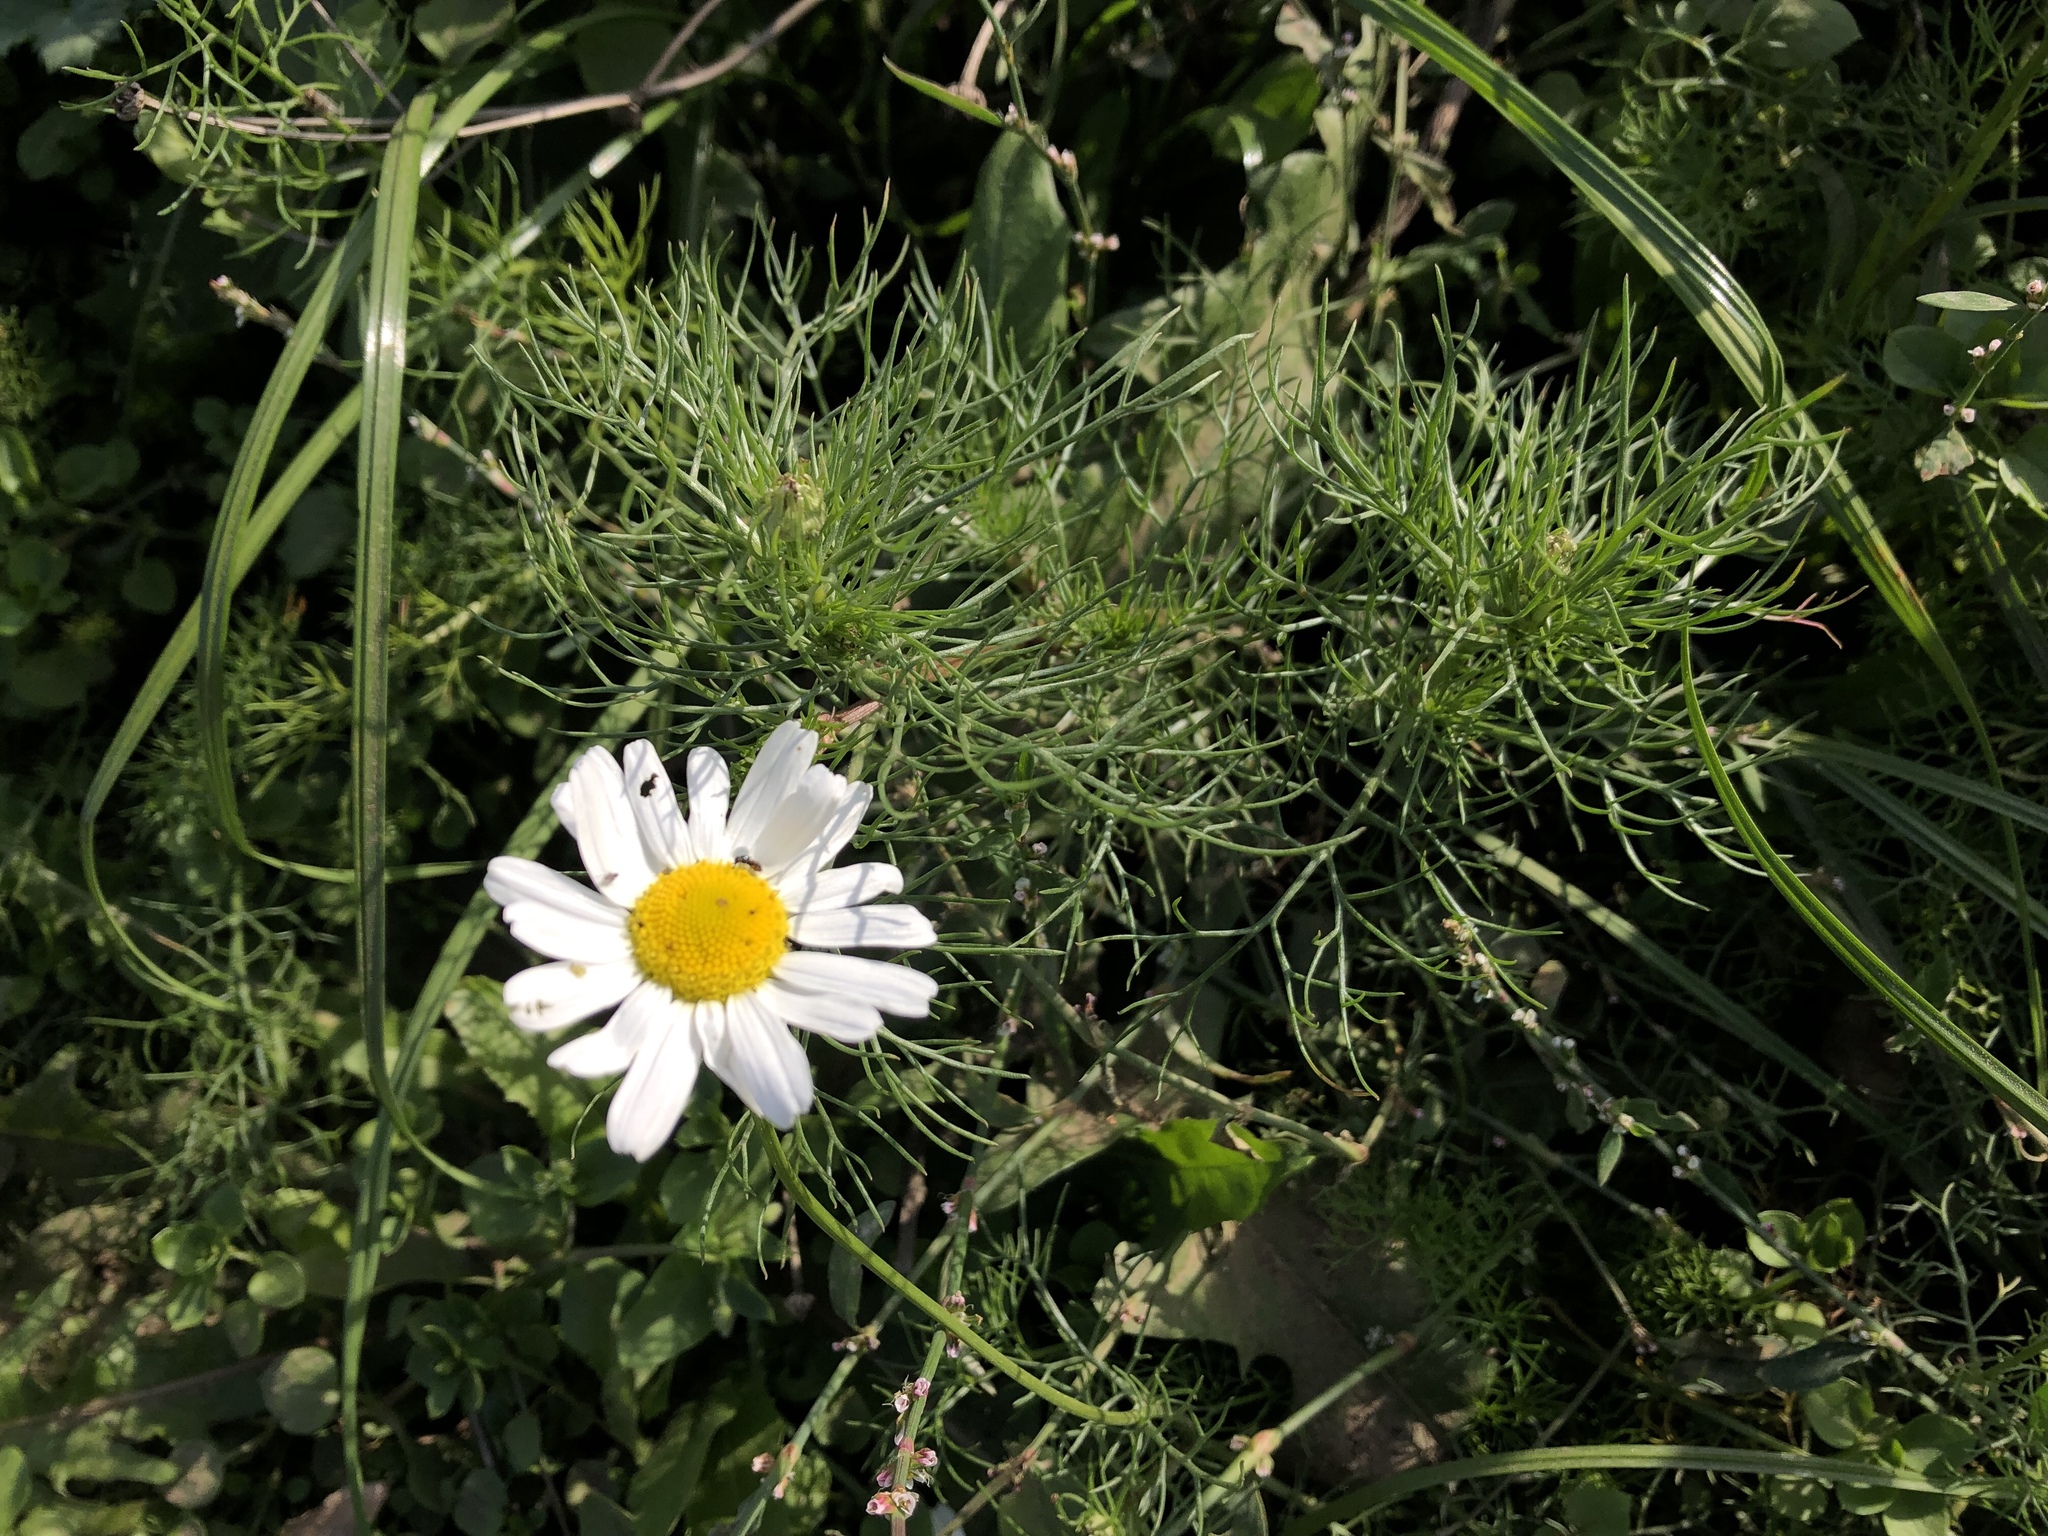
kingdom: Plantae
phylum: Tracheophyta
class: Magnoliopsida
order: Asterales
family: Asteraceae
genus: Tripleurospermum
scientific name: Tripleurospermum inodorum
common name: Scentless mayweed
